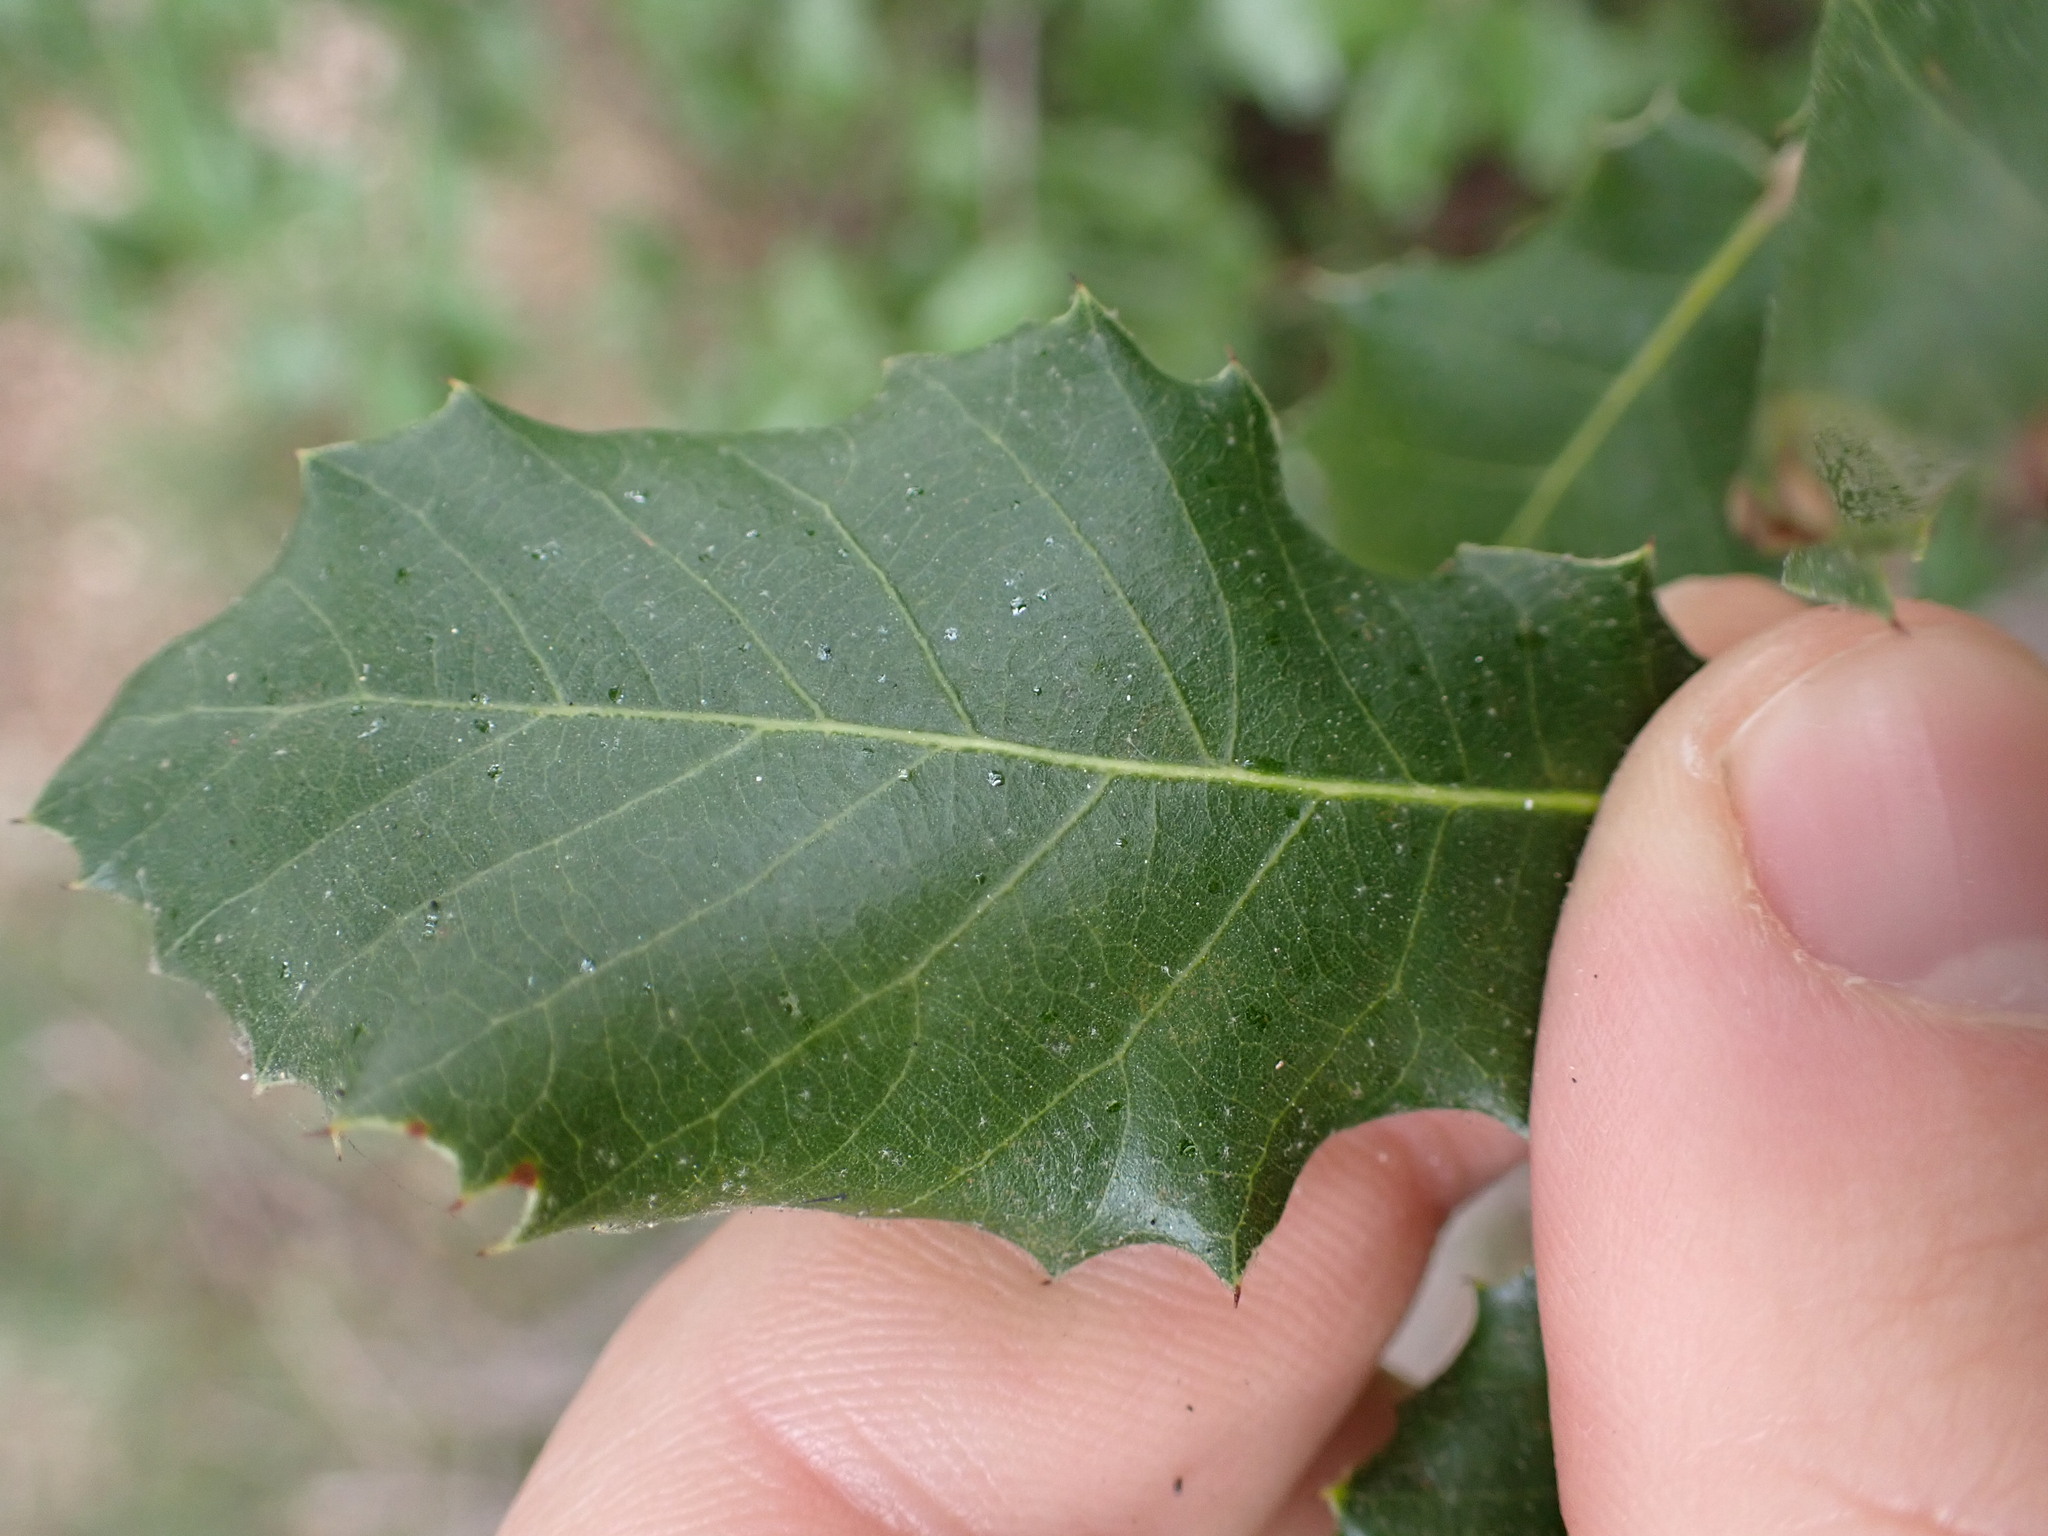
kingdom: Plantae
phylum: Tracheophyta
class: Magnoliopsida
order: Fagales
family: Fagaceae
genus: Quercus
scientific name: Quercus ilex
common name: Evergreen oak
